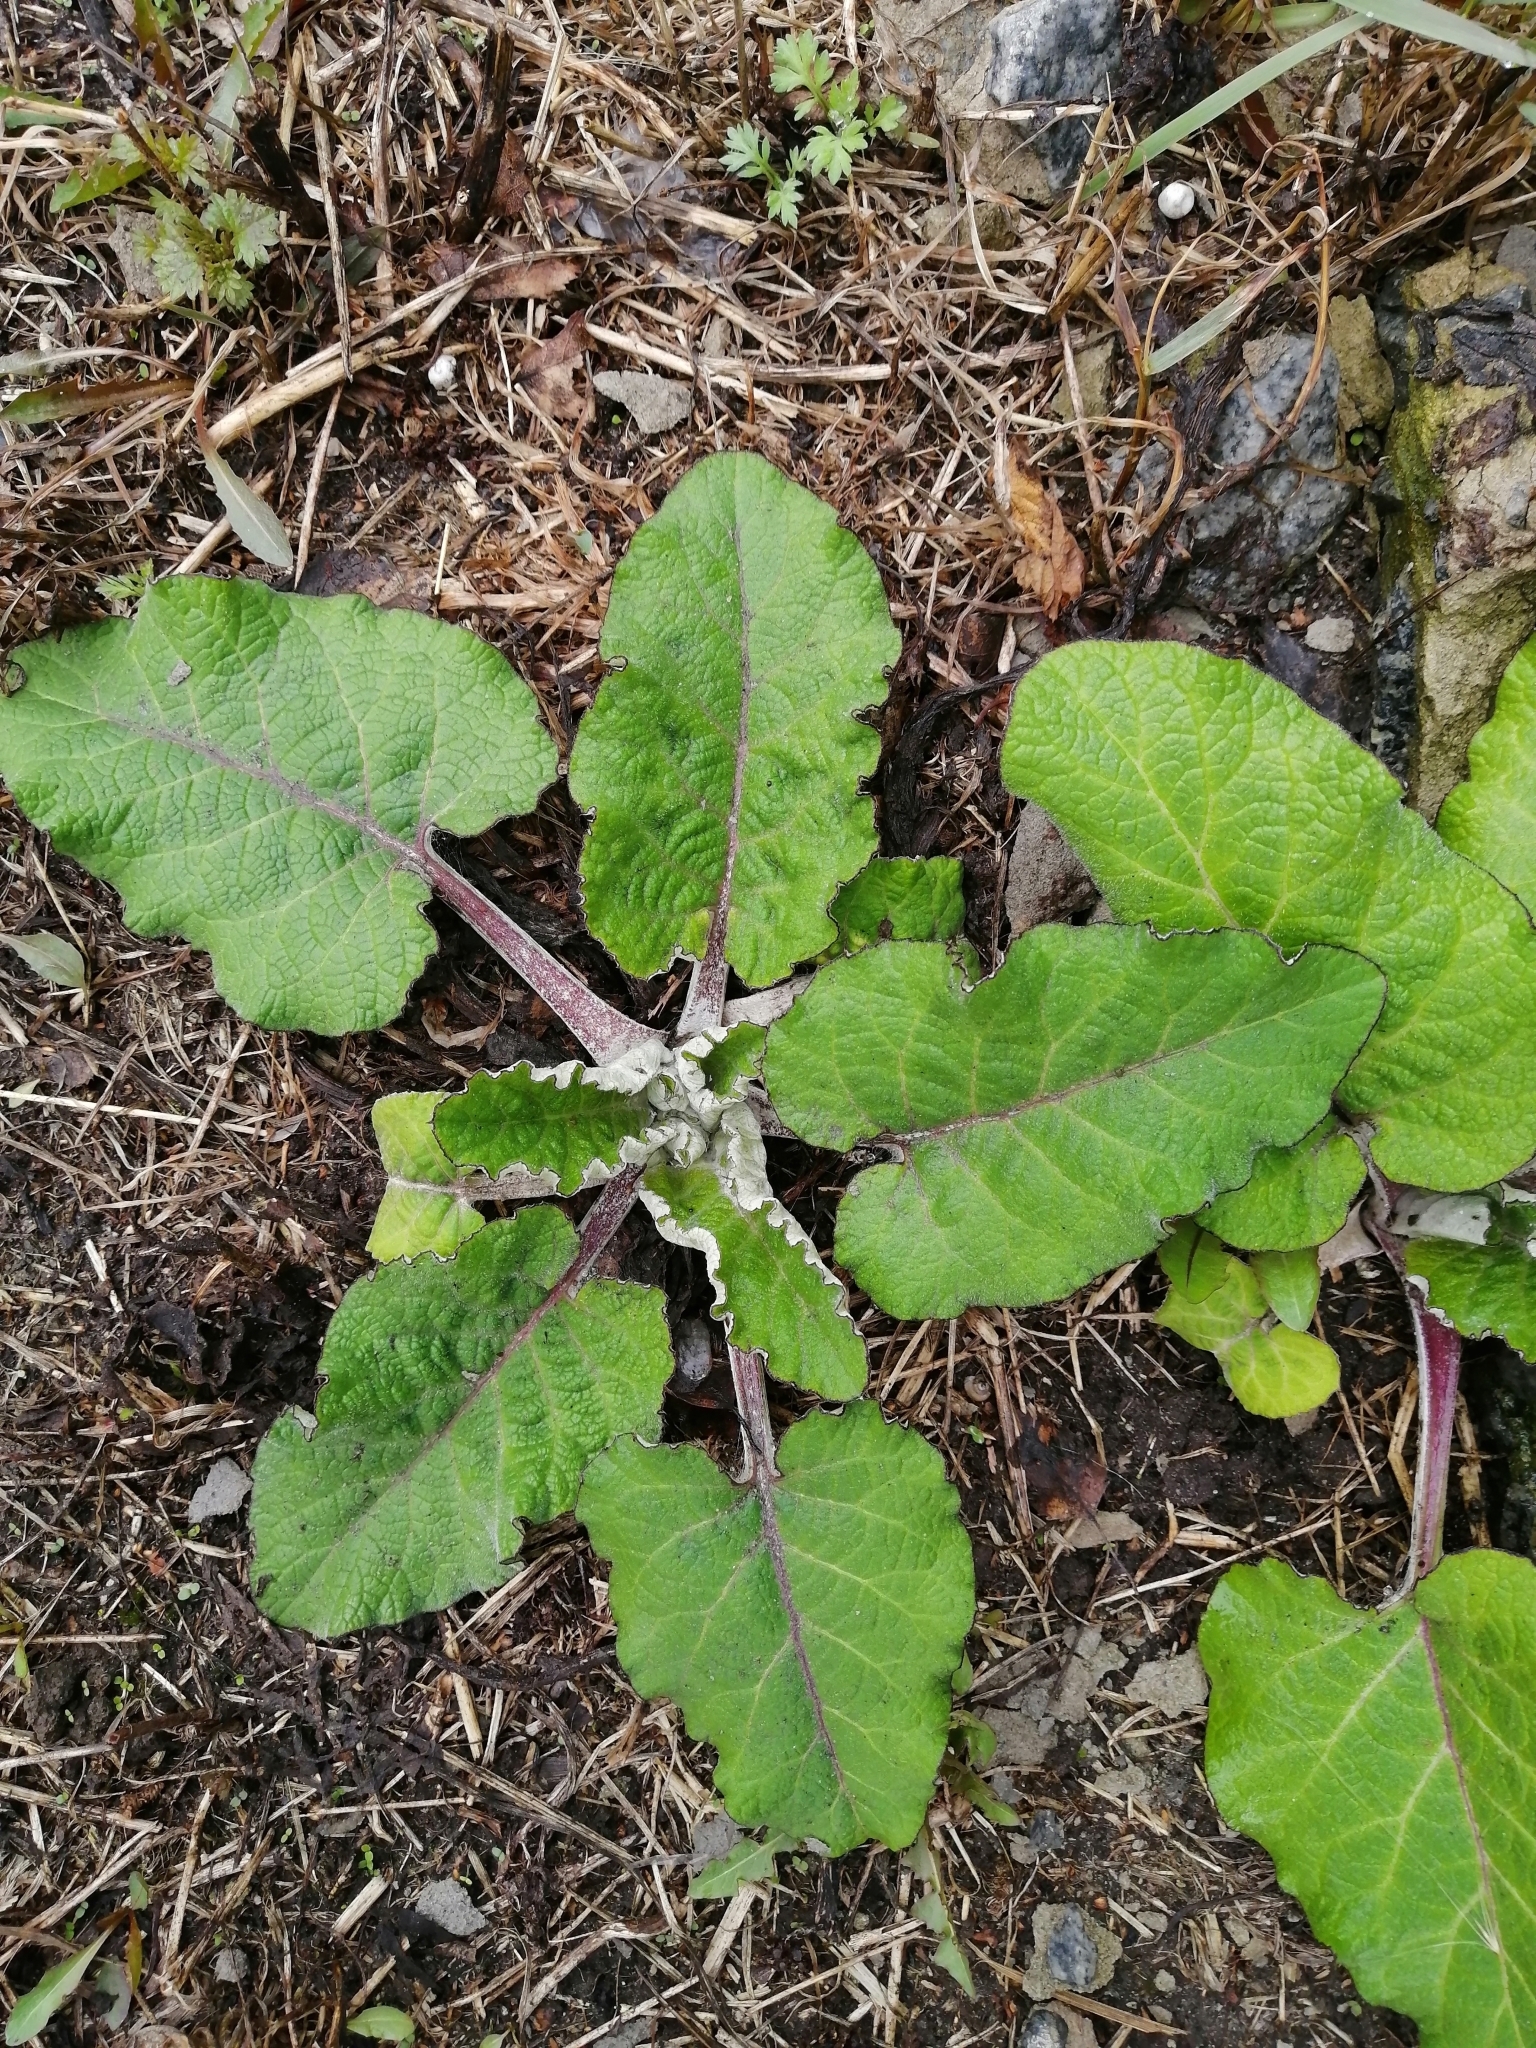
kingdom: Plantae
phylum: Tracheophyta
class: Magnoliopsida
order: Asterales
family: Asteraceae
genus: Arctium
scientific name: Arctium tomentosum
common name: Woolly burdock
